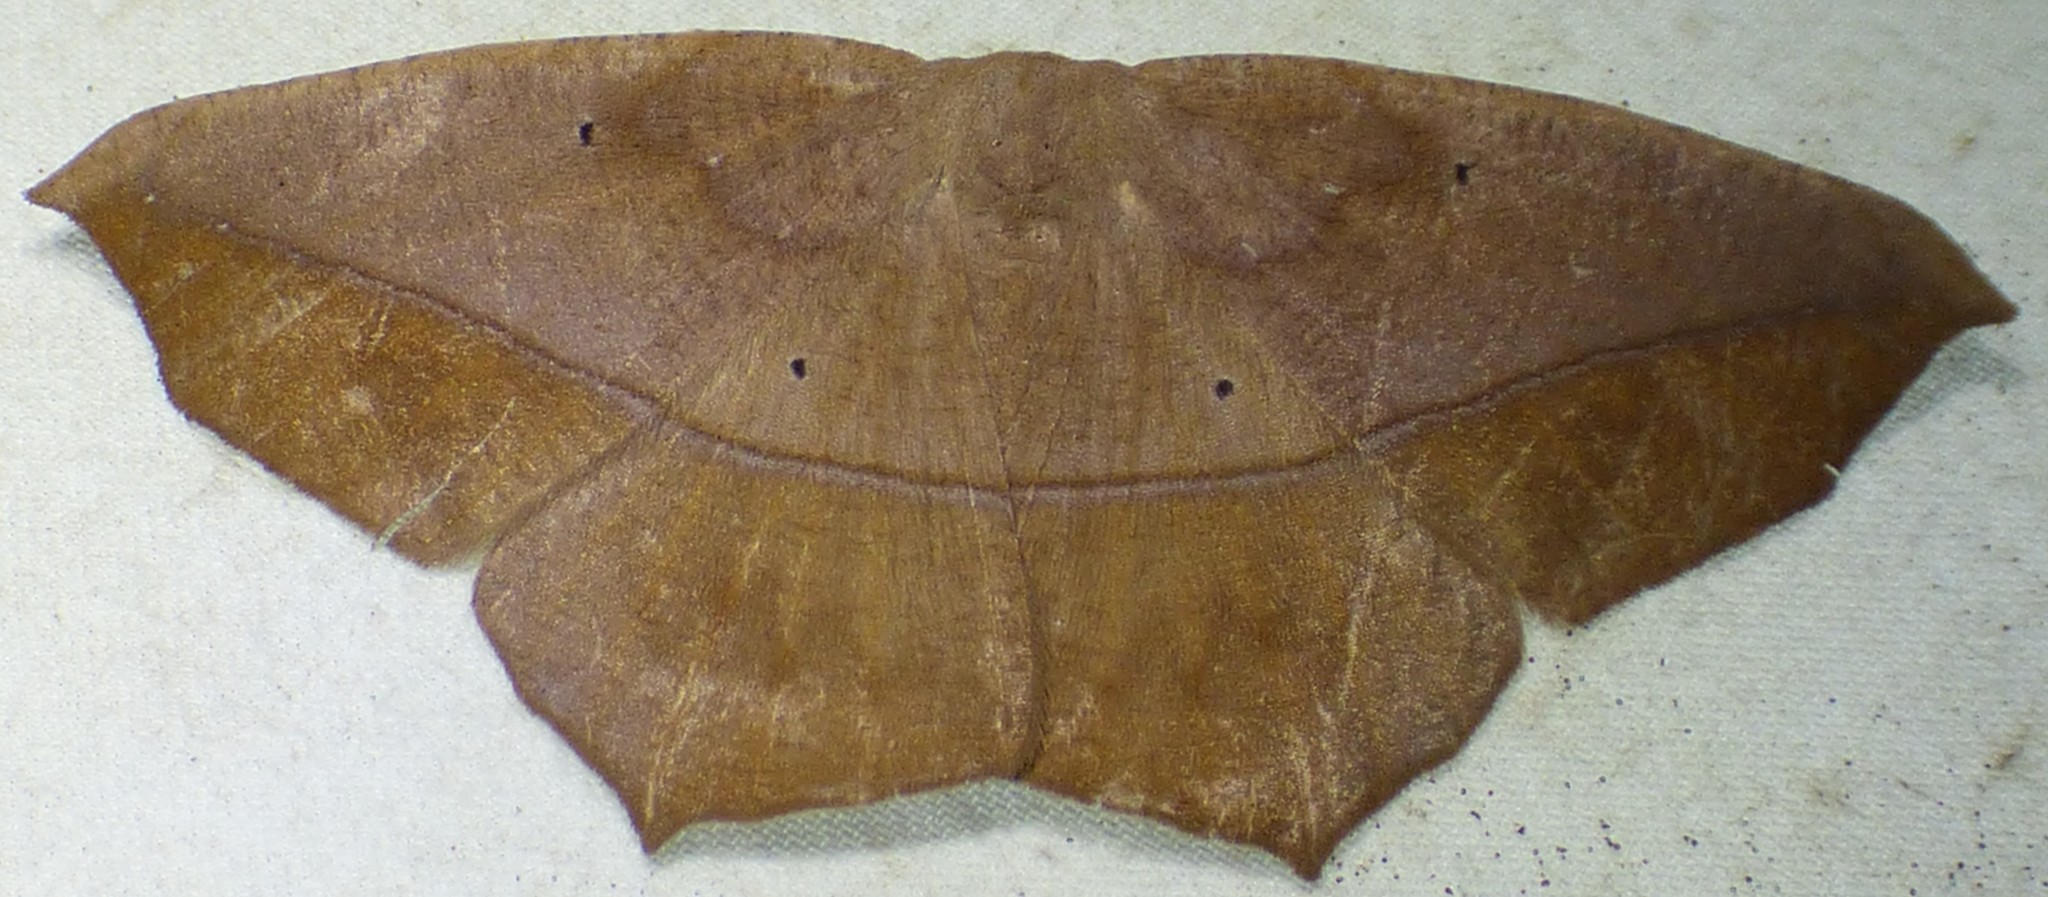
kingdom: Animalia
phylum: Arthropoda
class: Insecta
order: Lepidoptera
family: Geometridae
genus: Prochoerodes
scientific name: Prochoerodes lineola
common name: Large maple spanworm
